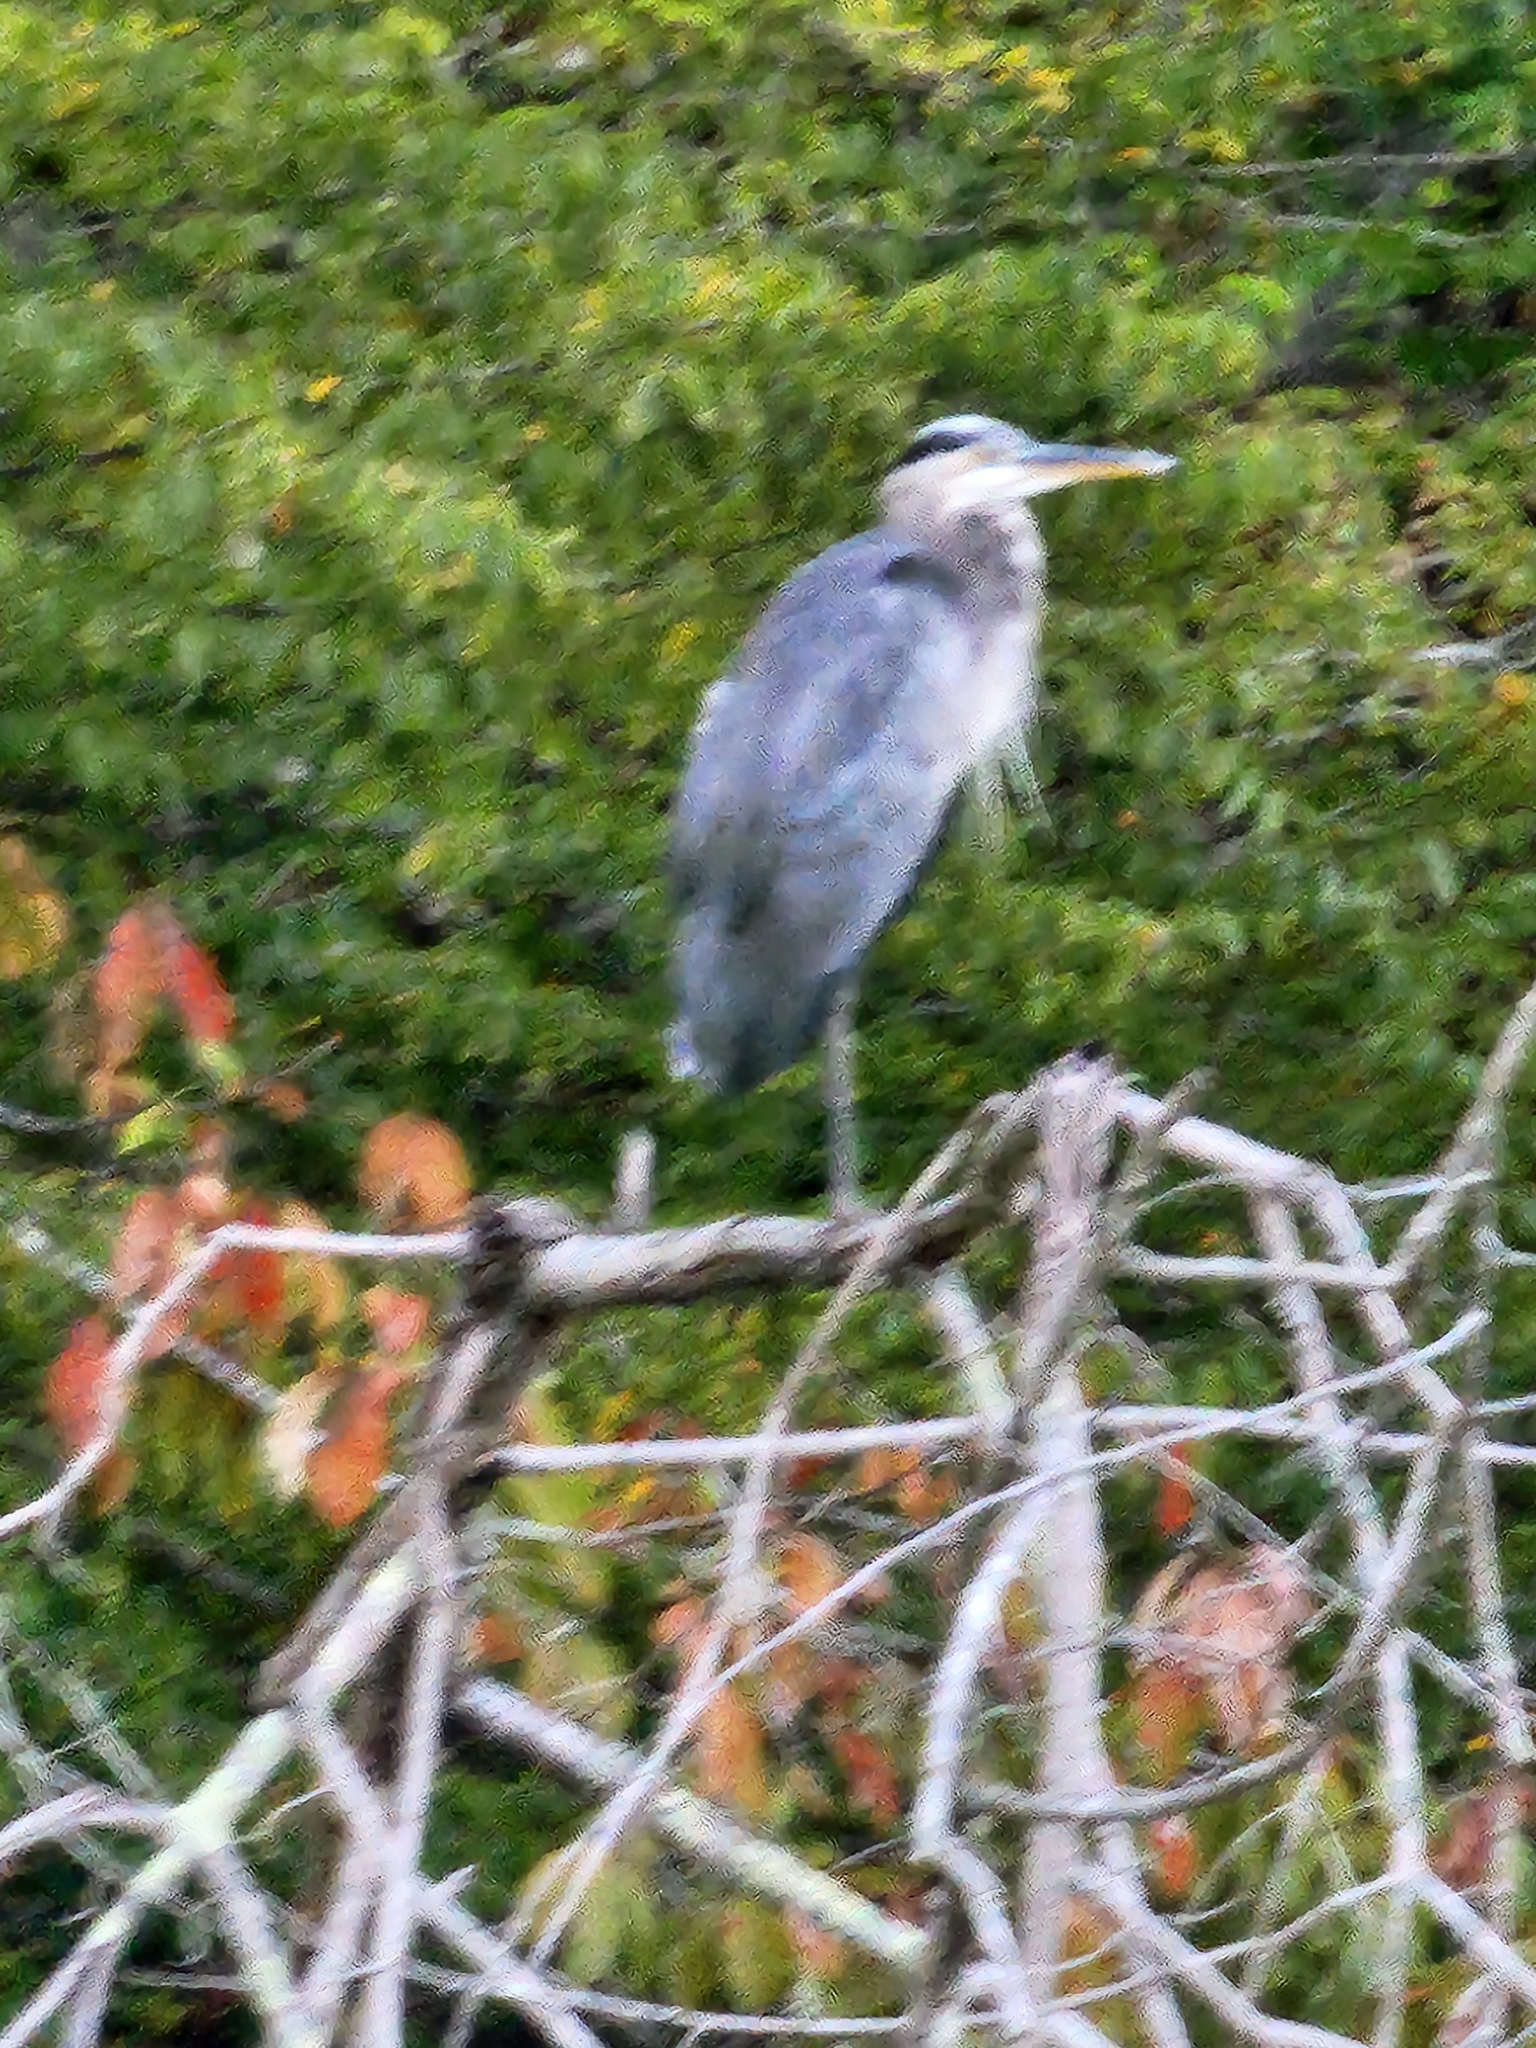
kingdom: Animalia
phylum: Chordata
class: Aves
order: Pelecaniformes
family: Ardeidae
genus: Ardea
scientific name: Ardea herodias
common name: Great blue heron
